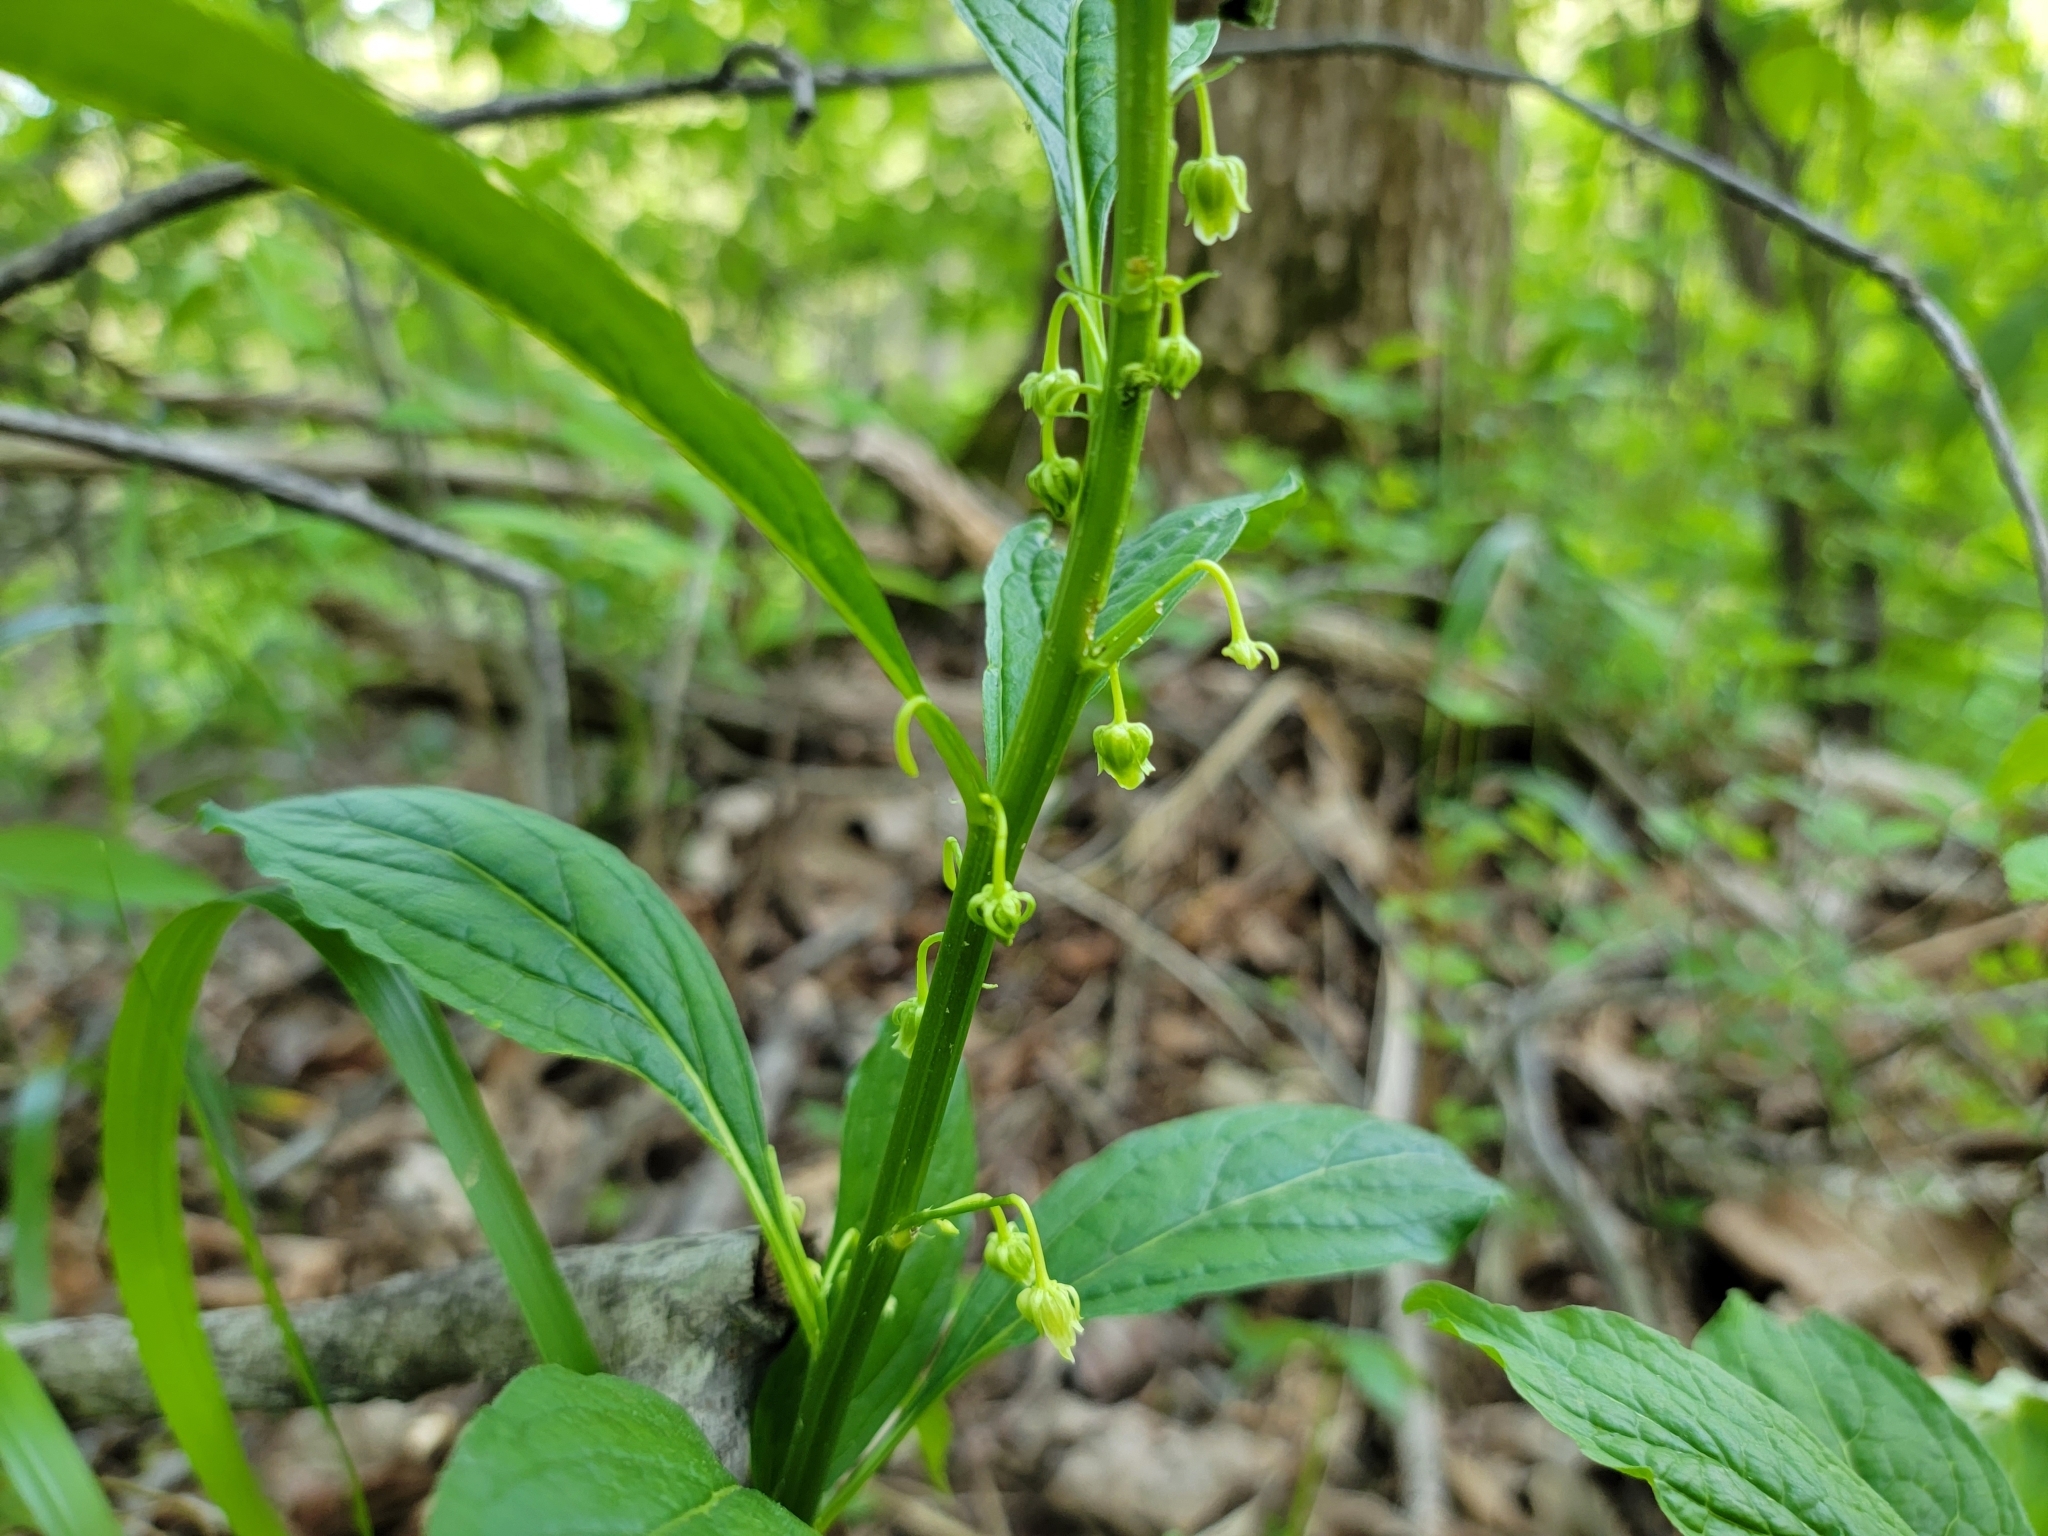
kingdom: Plantae
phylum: Tracheophyta
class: Magnoliopsida
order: Malpighiales
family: Violaceae
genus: Cubelium
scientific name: Cubelium concolor
